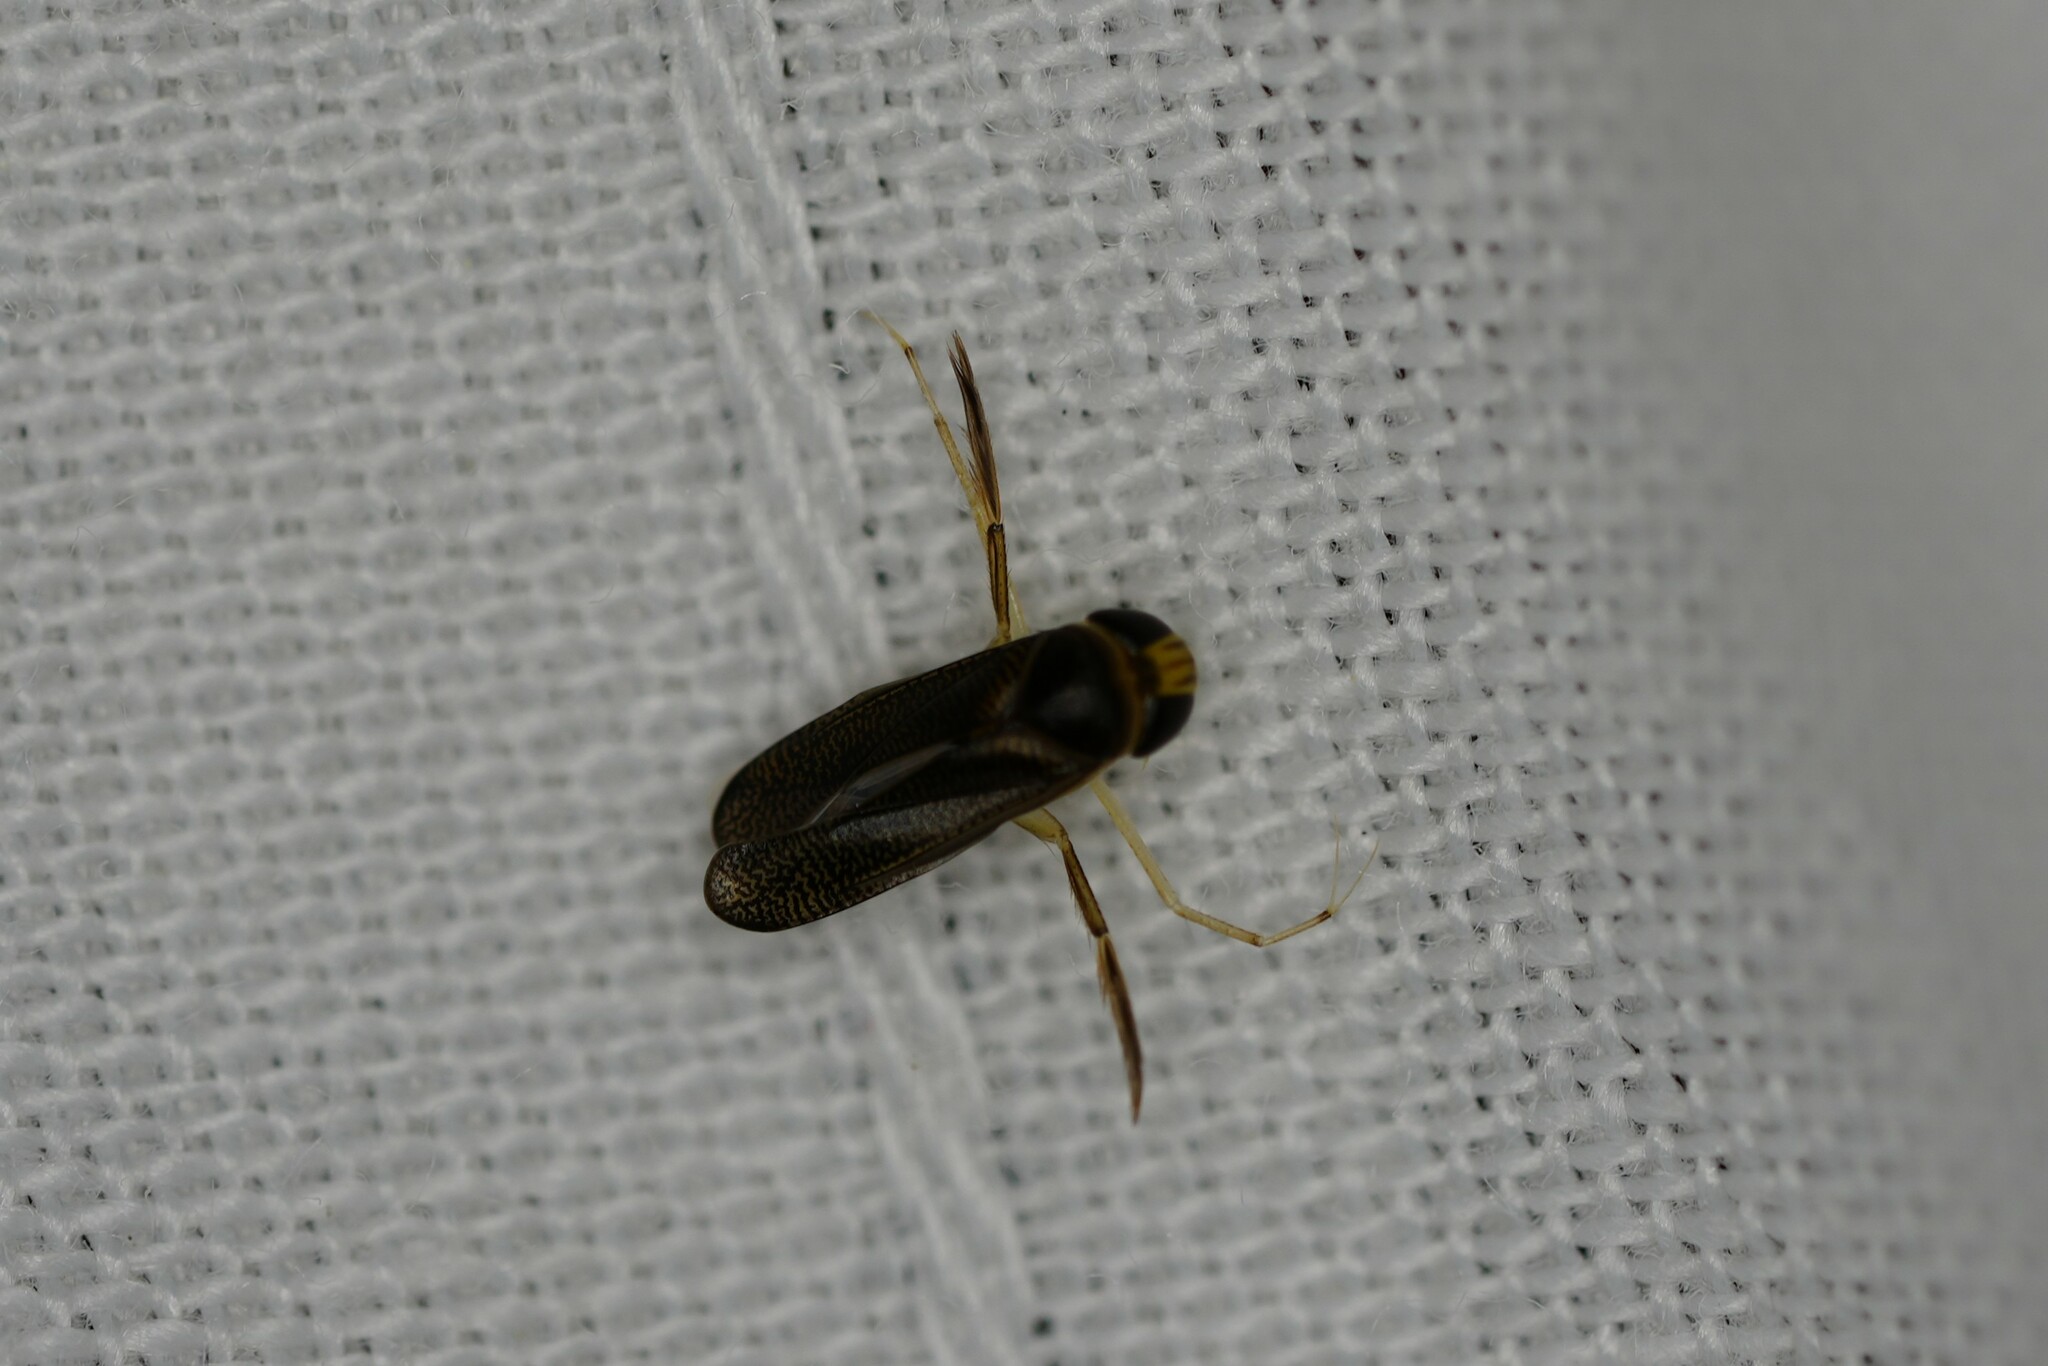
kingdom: Animalia
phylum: Arthropoda
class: Insecta
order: Hemiptera
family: Corixidae
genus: Trichocorixa
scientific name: Trichocorixa
